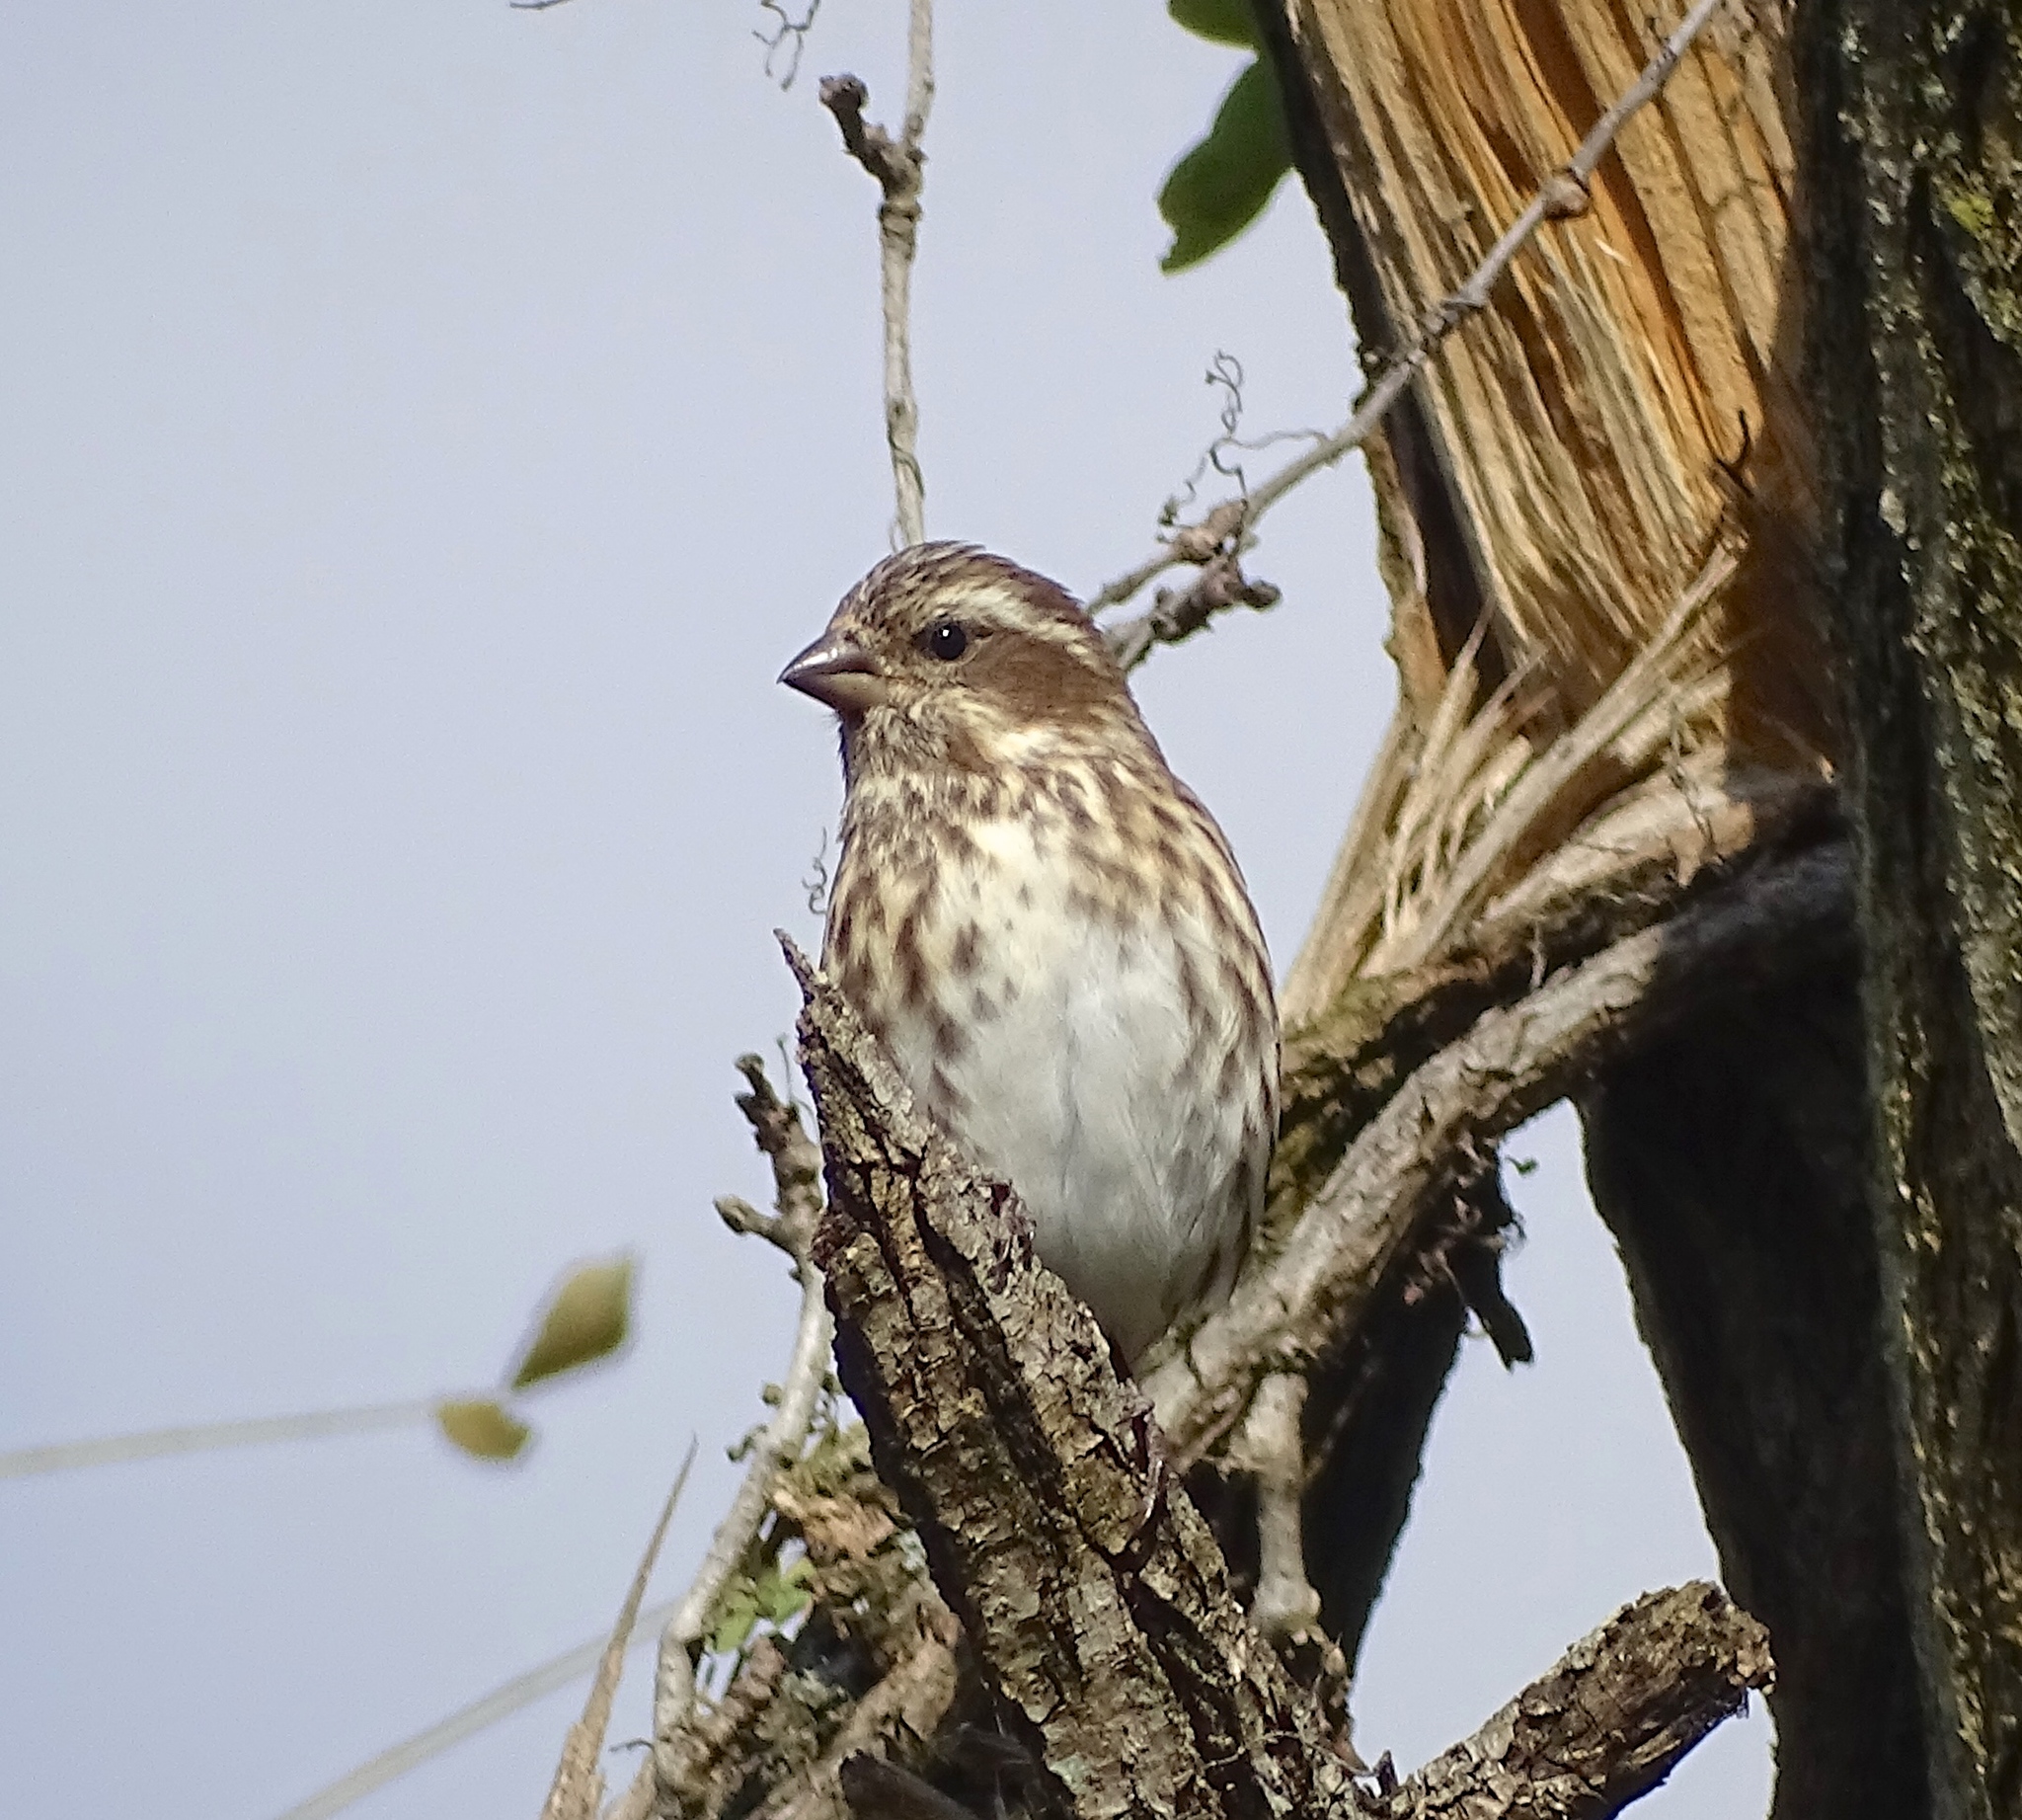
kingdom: Animalia
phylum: Chordata
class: Aves
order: Passeriformes
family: Fringillidae
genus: Haemorhous
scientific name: Haemorhous purpureus
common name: Purple finch
